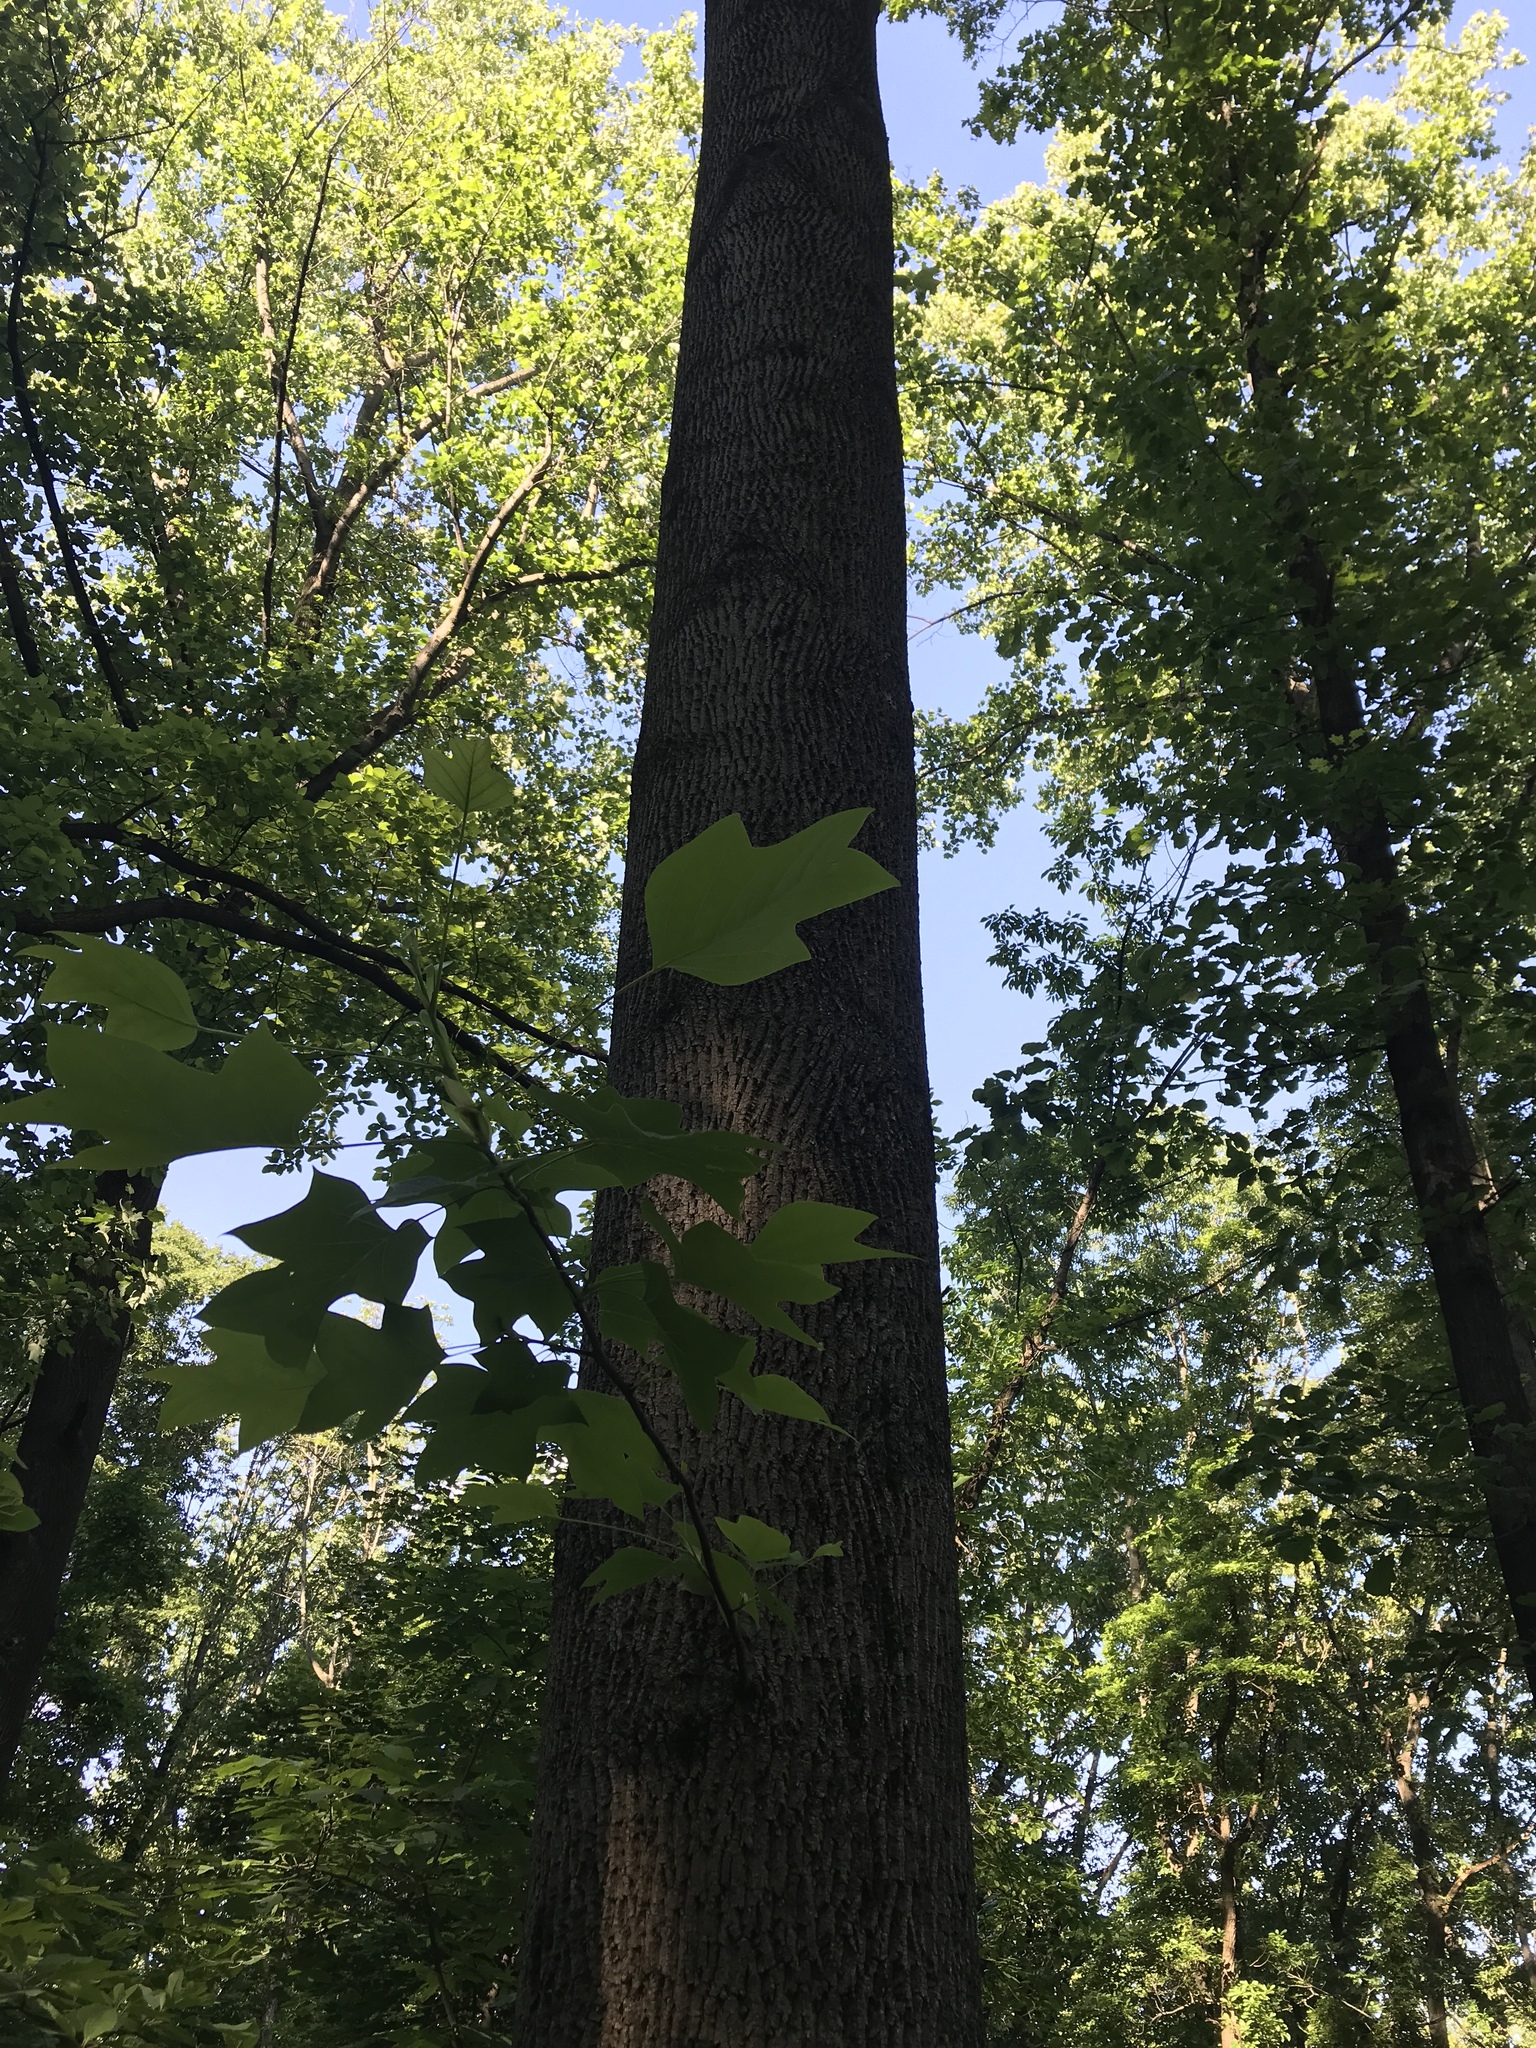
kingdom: Plantae
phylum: Tracheophyta
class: Magnoliopsida
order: Magnoliales
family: Magnoliaceae
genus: Liriodendron
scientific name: Liriodendron tulipifera
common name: Tulip tree
